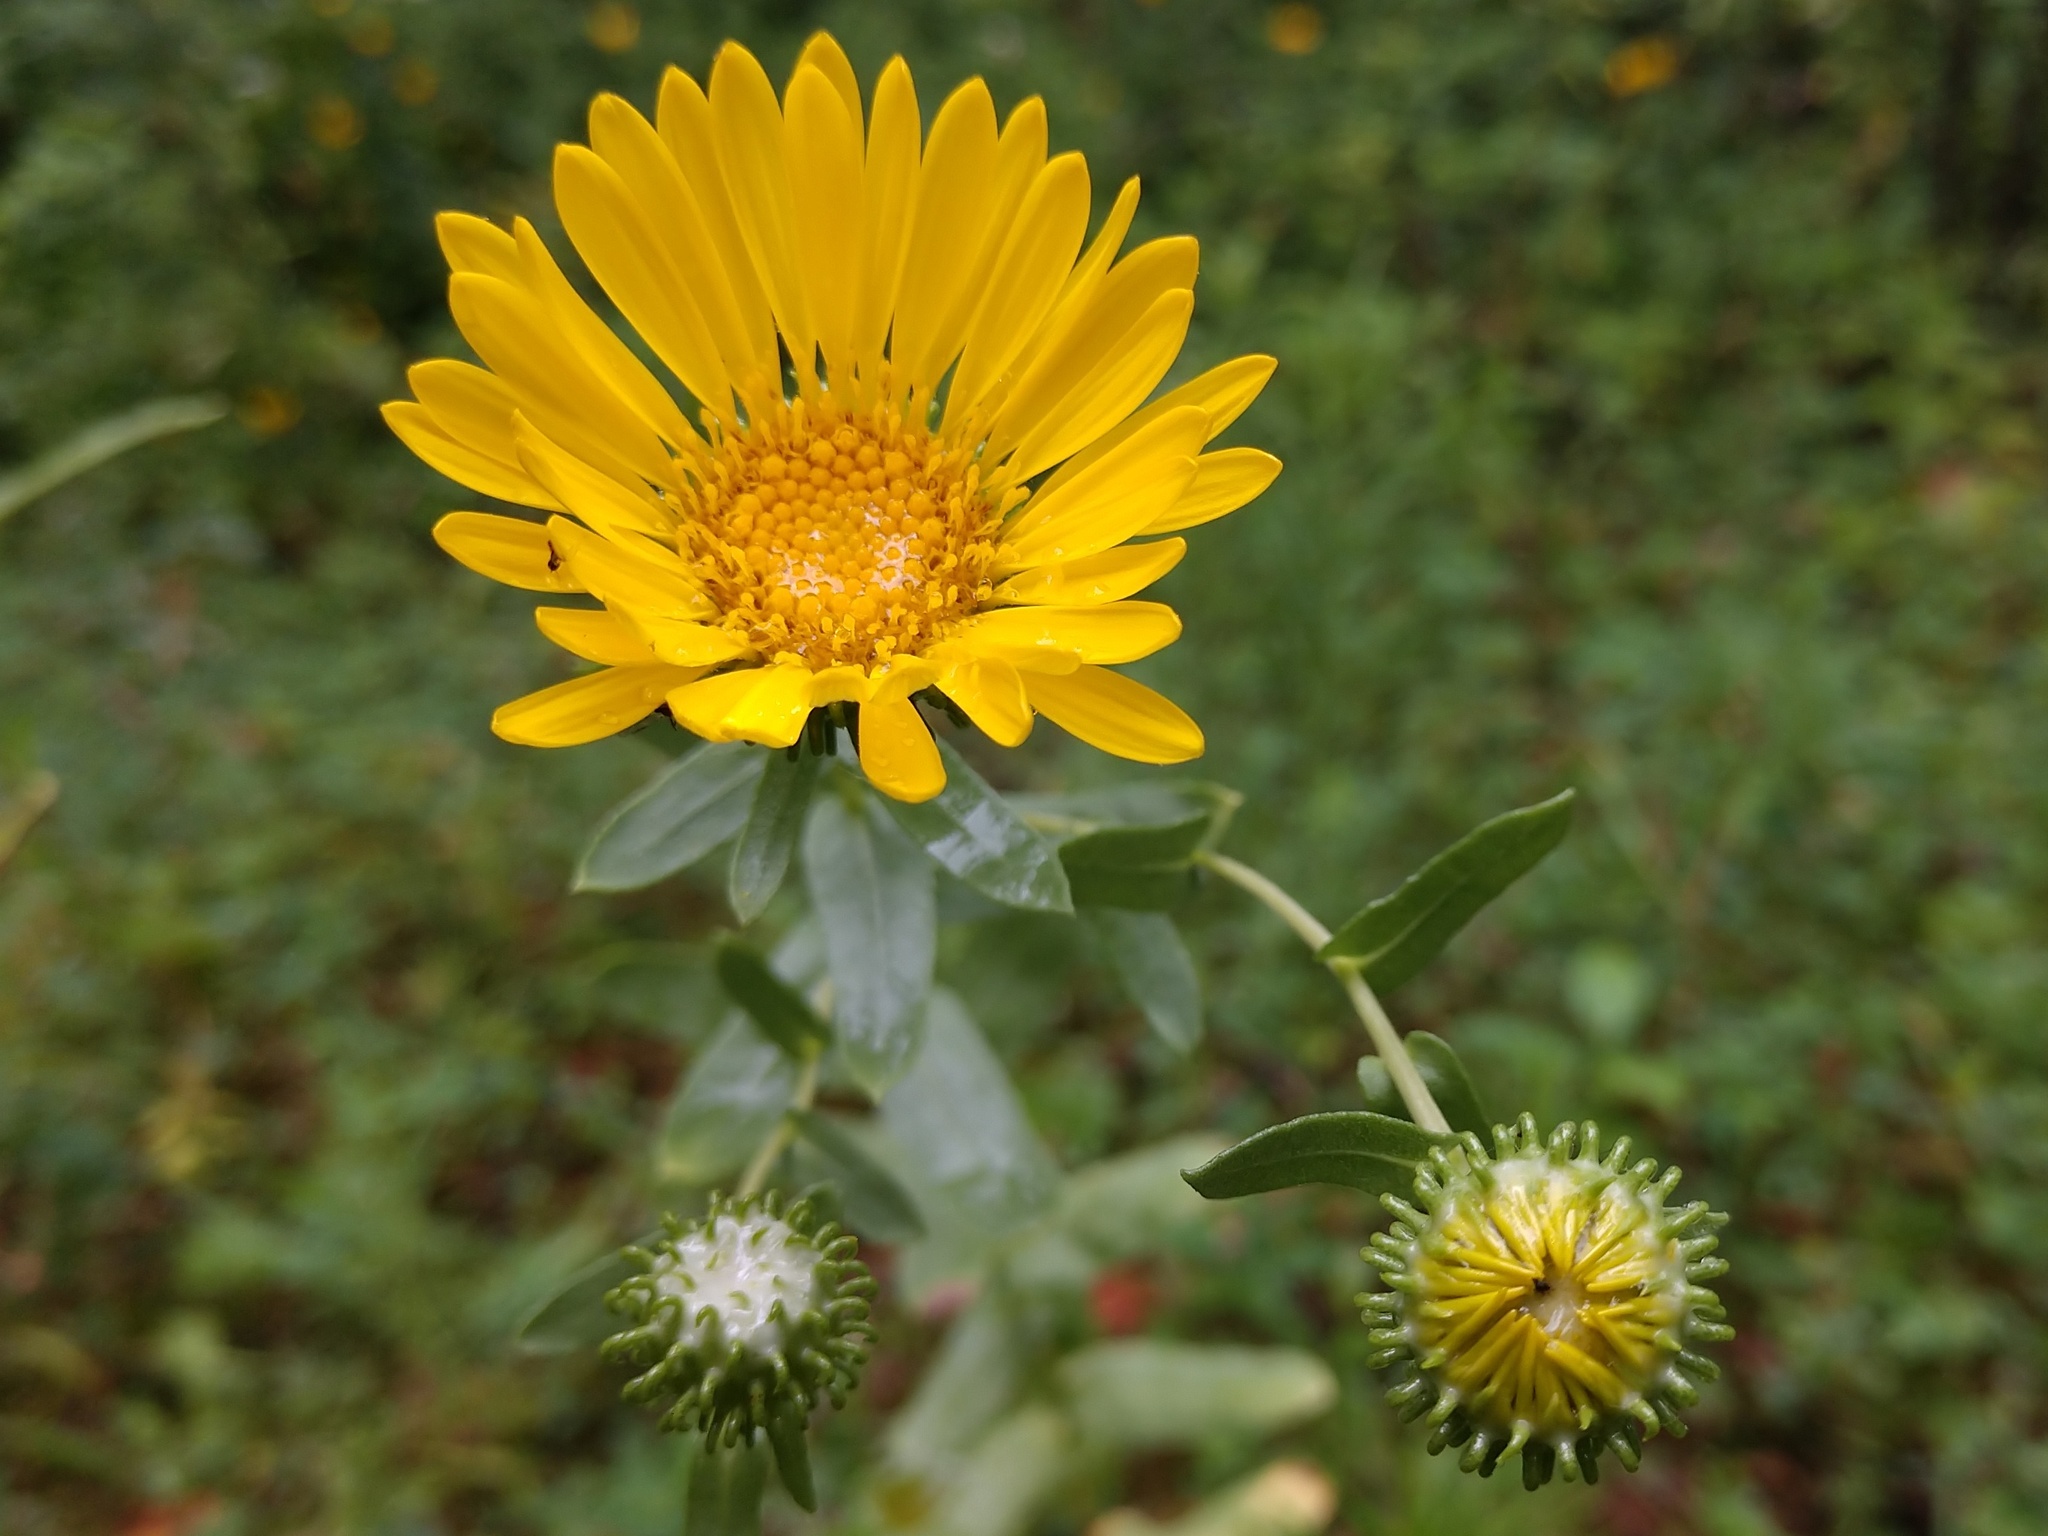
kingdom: Plantae
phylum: Tracheophyta
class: Magnoliopsida
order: Asterales
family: Asteraceae
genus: Grindelia
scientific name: Grindelia squarrosa
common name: Curly-cup gumweed
